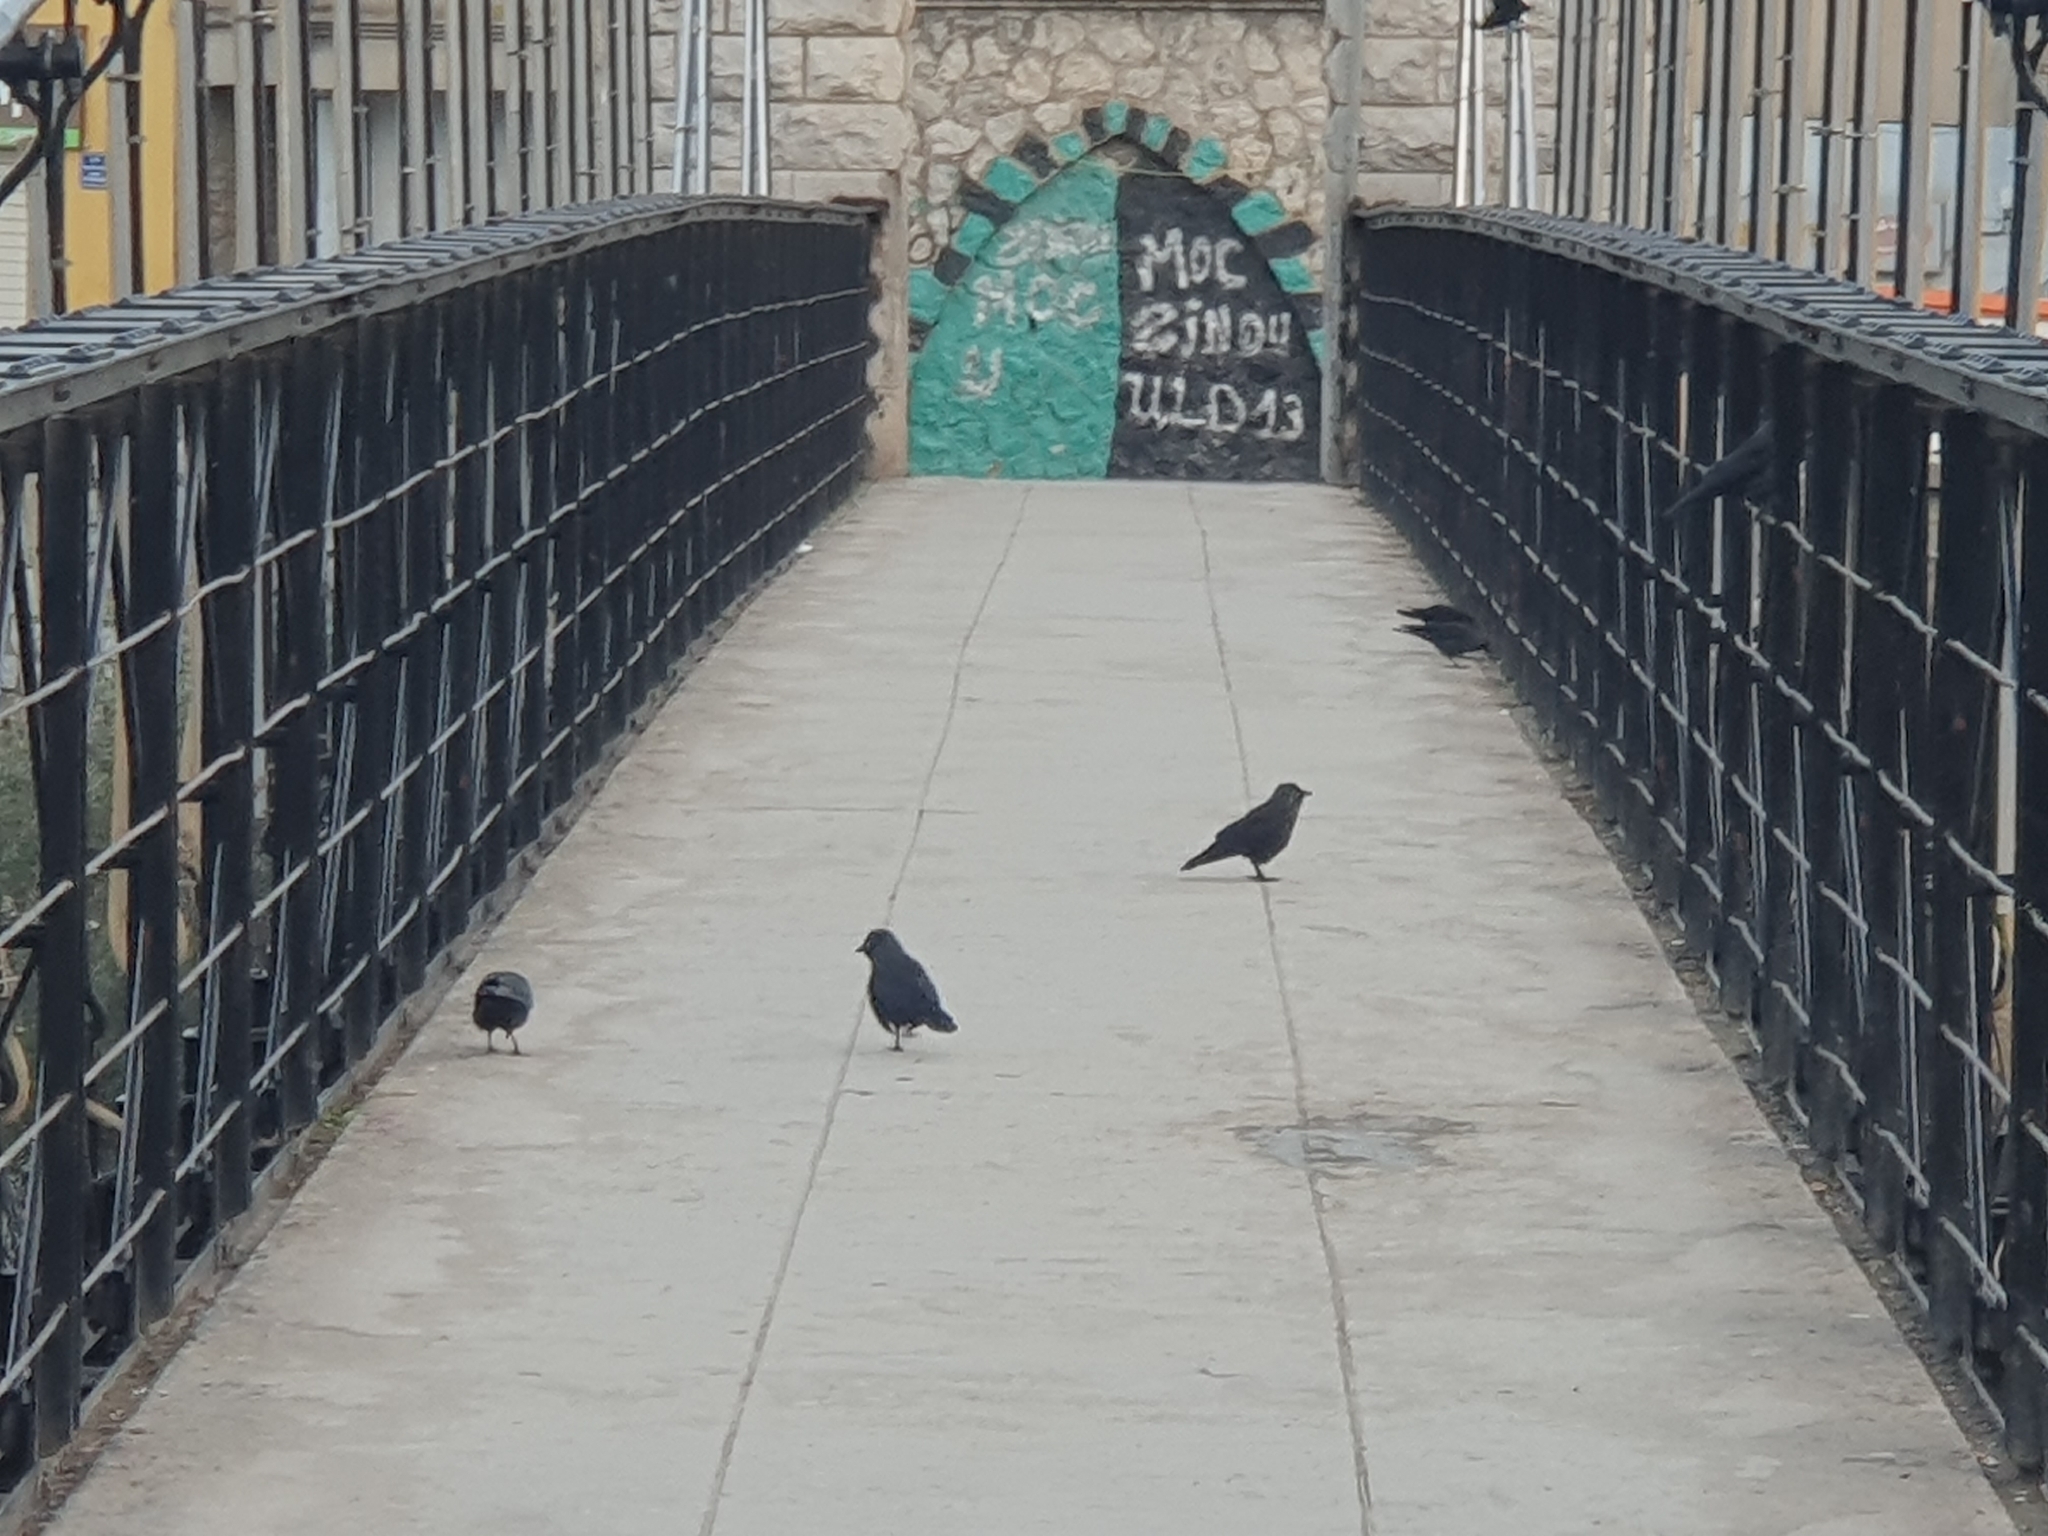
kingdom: Animalia
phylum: Chordata
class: Aves
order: Passeriformes
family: Corvidae
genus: Coloeus
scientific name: Coloeus monedula
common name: Western jackdaw
